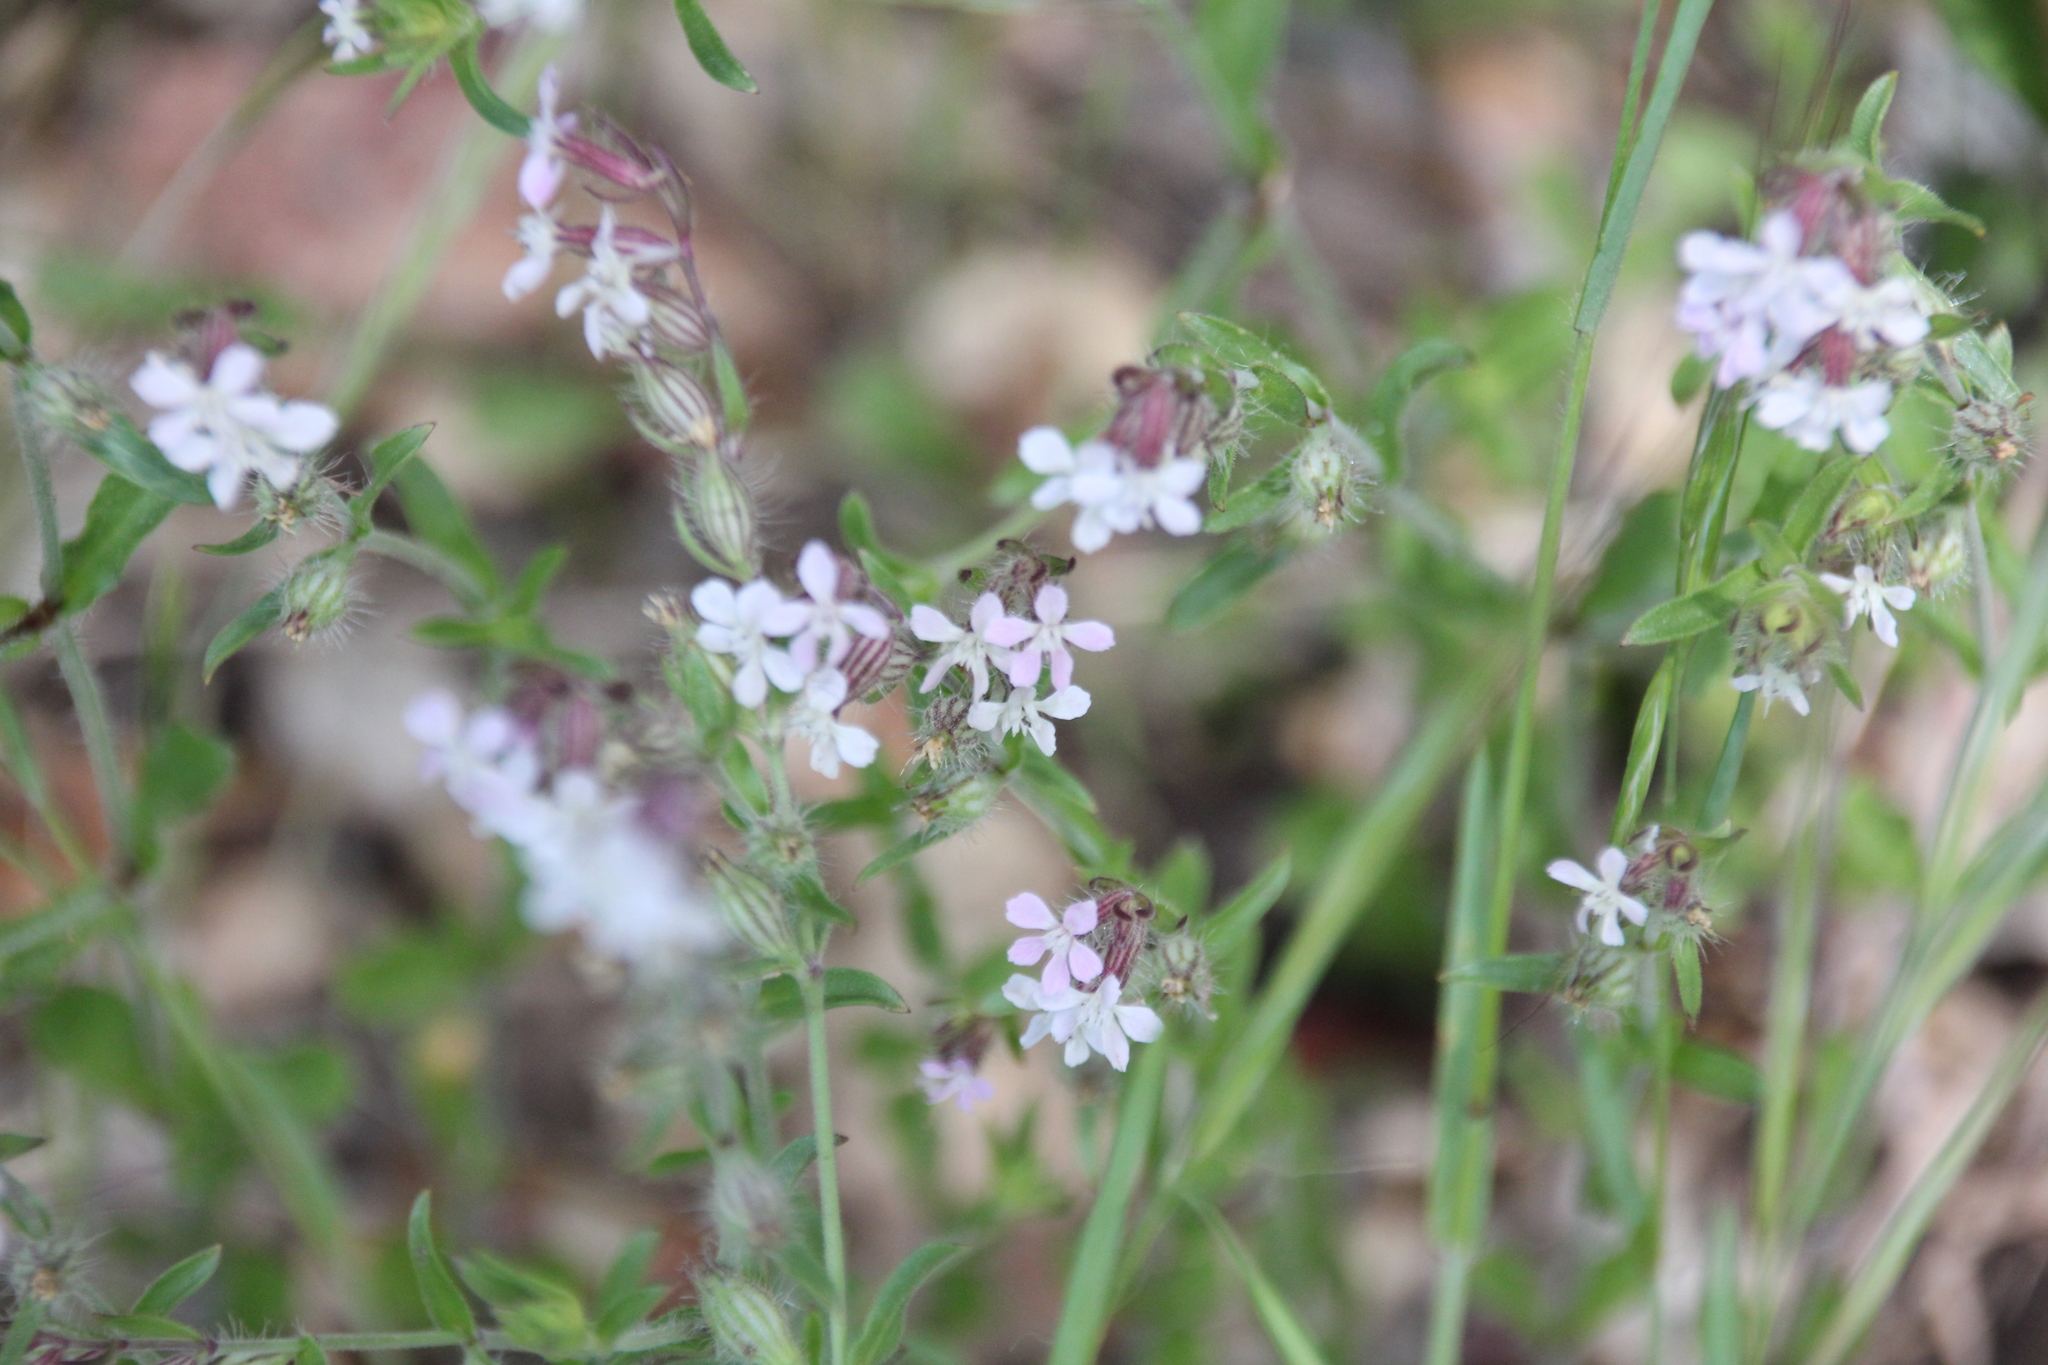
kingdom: Plantae
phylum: Tracheophyta
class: Magnoliopsida
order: Caryophyllales
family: Caryophyllaceae
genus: Silene
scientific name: Silene gallica
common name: Small-flowered catchfly
